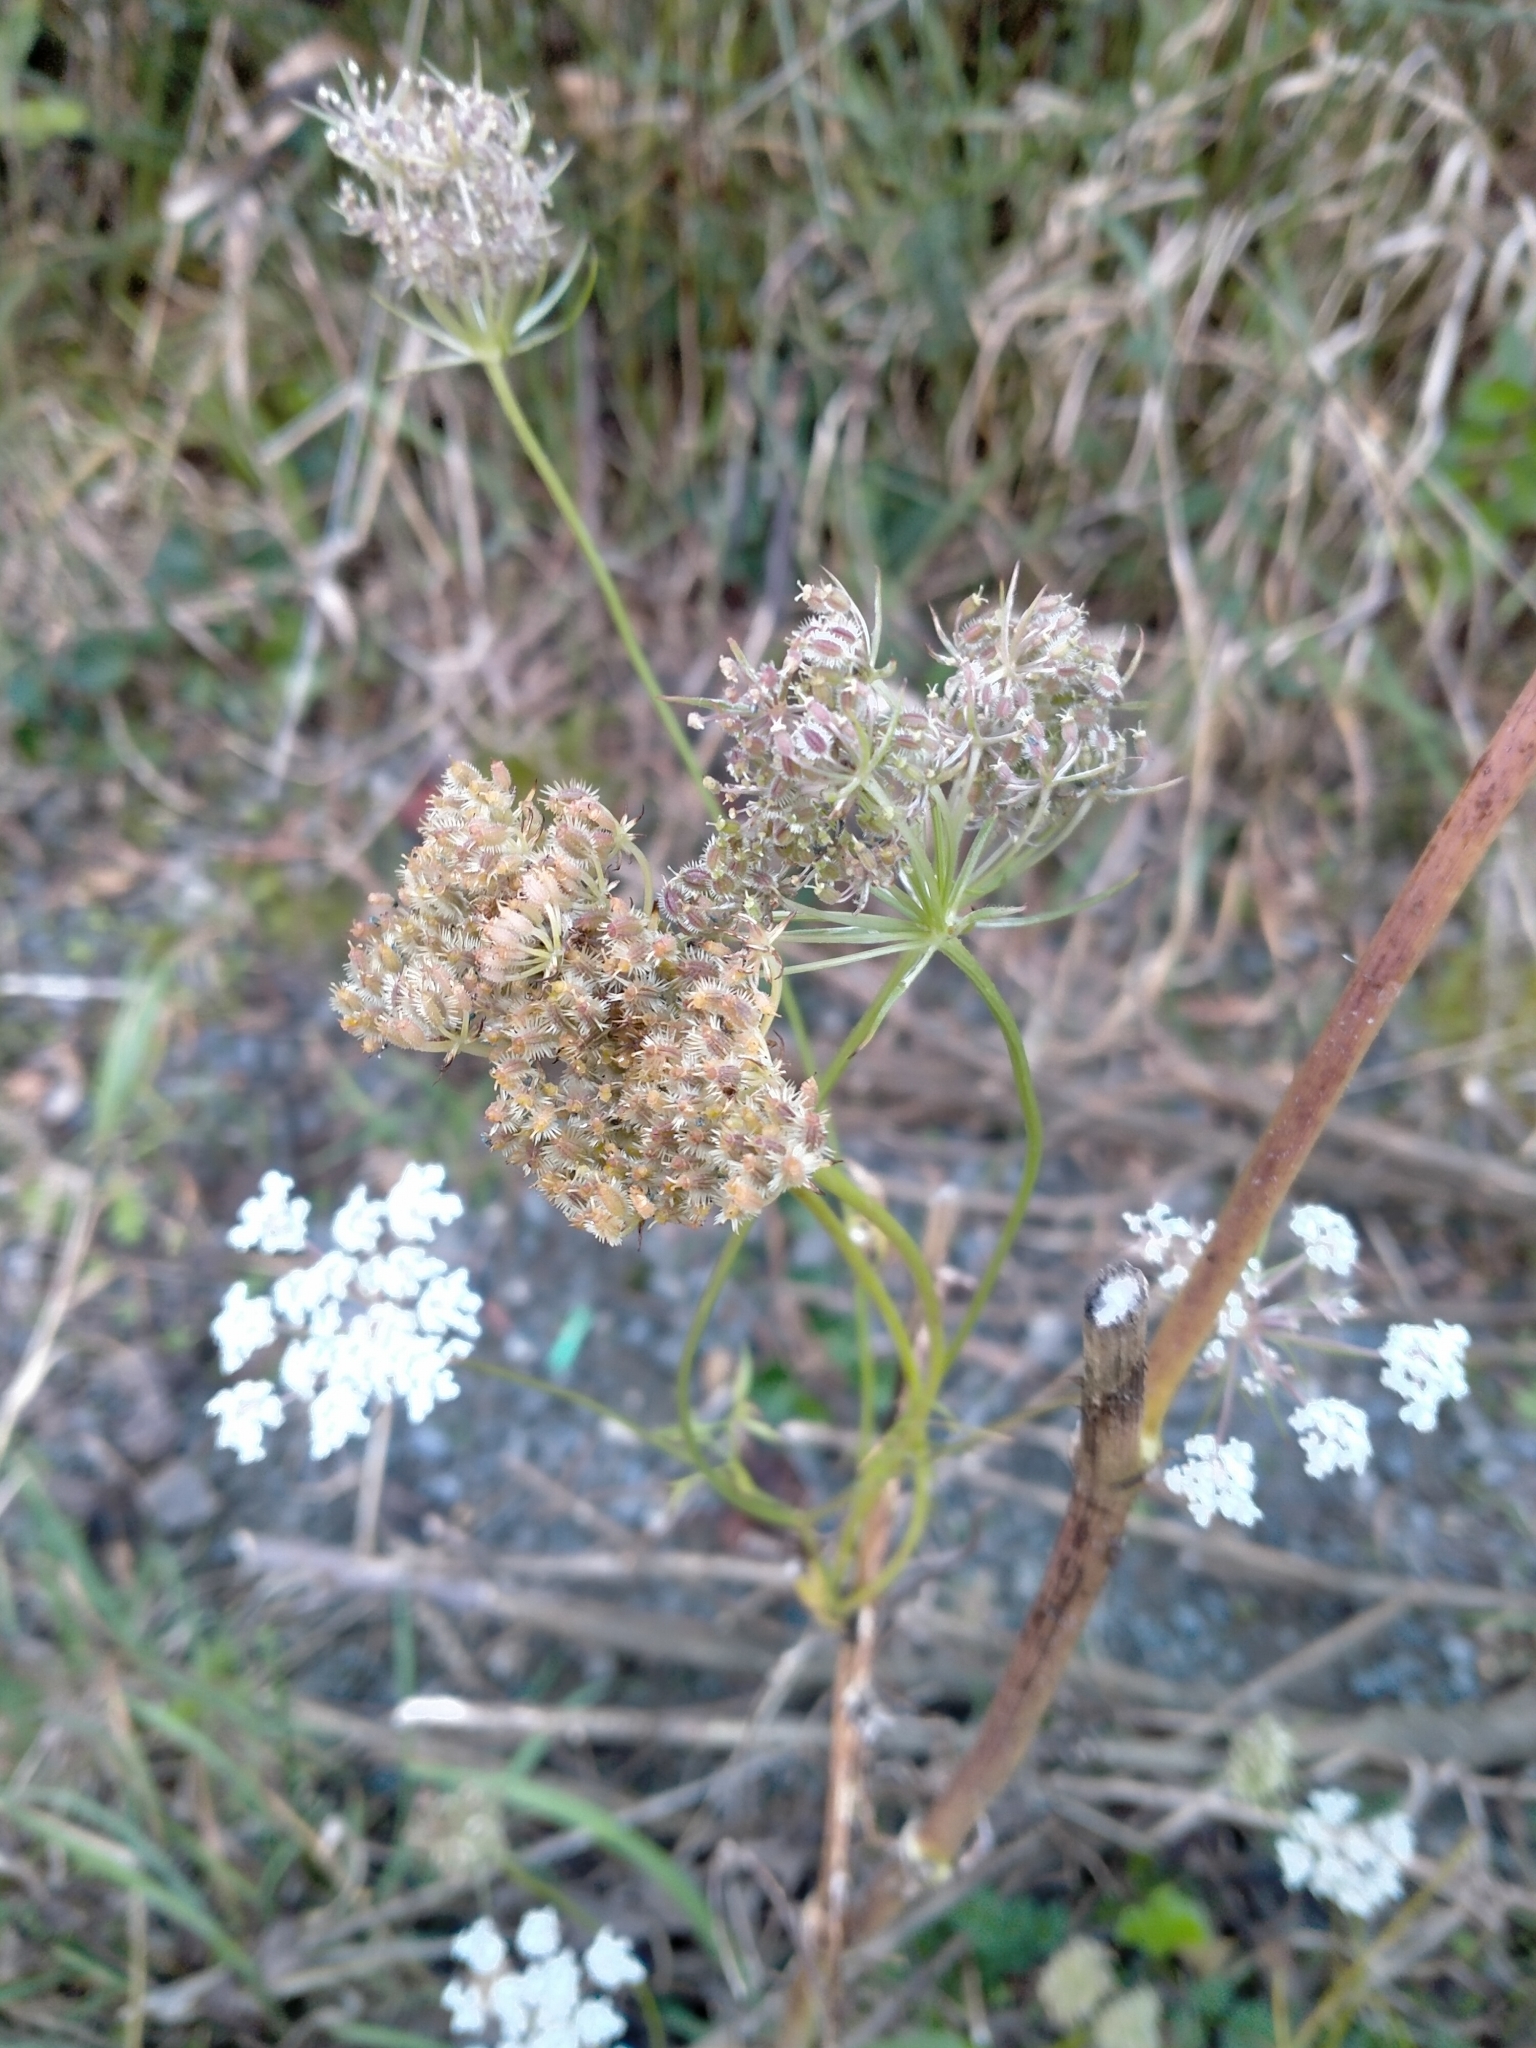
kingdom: Plantae
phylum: Tracheophyta
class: Magnoliopsida
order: Apiales
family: Apiaceae
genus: Daucus
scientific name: Daucus carota
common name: Wild carrot
